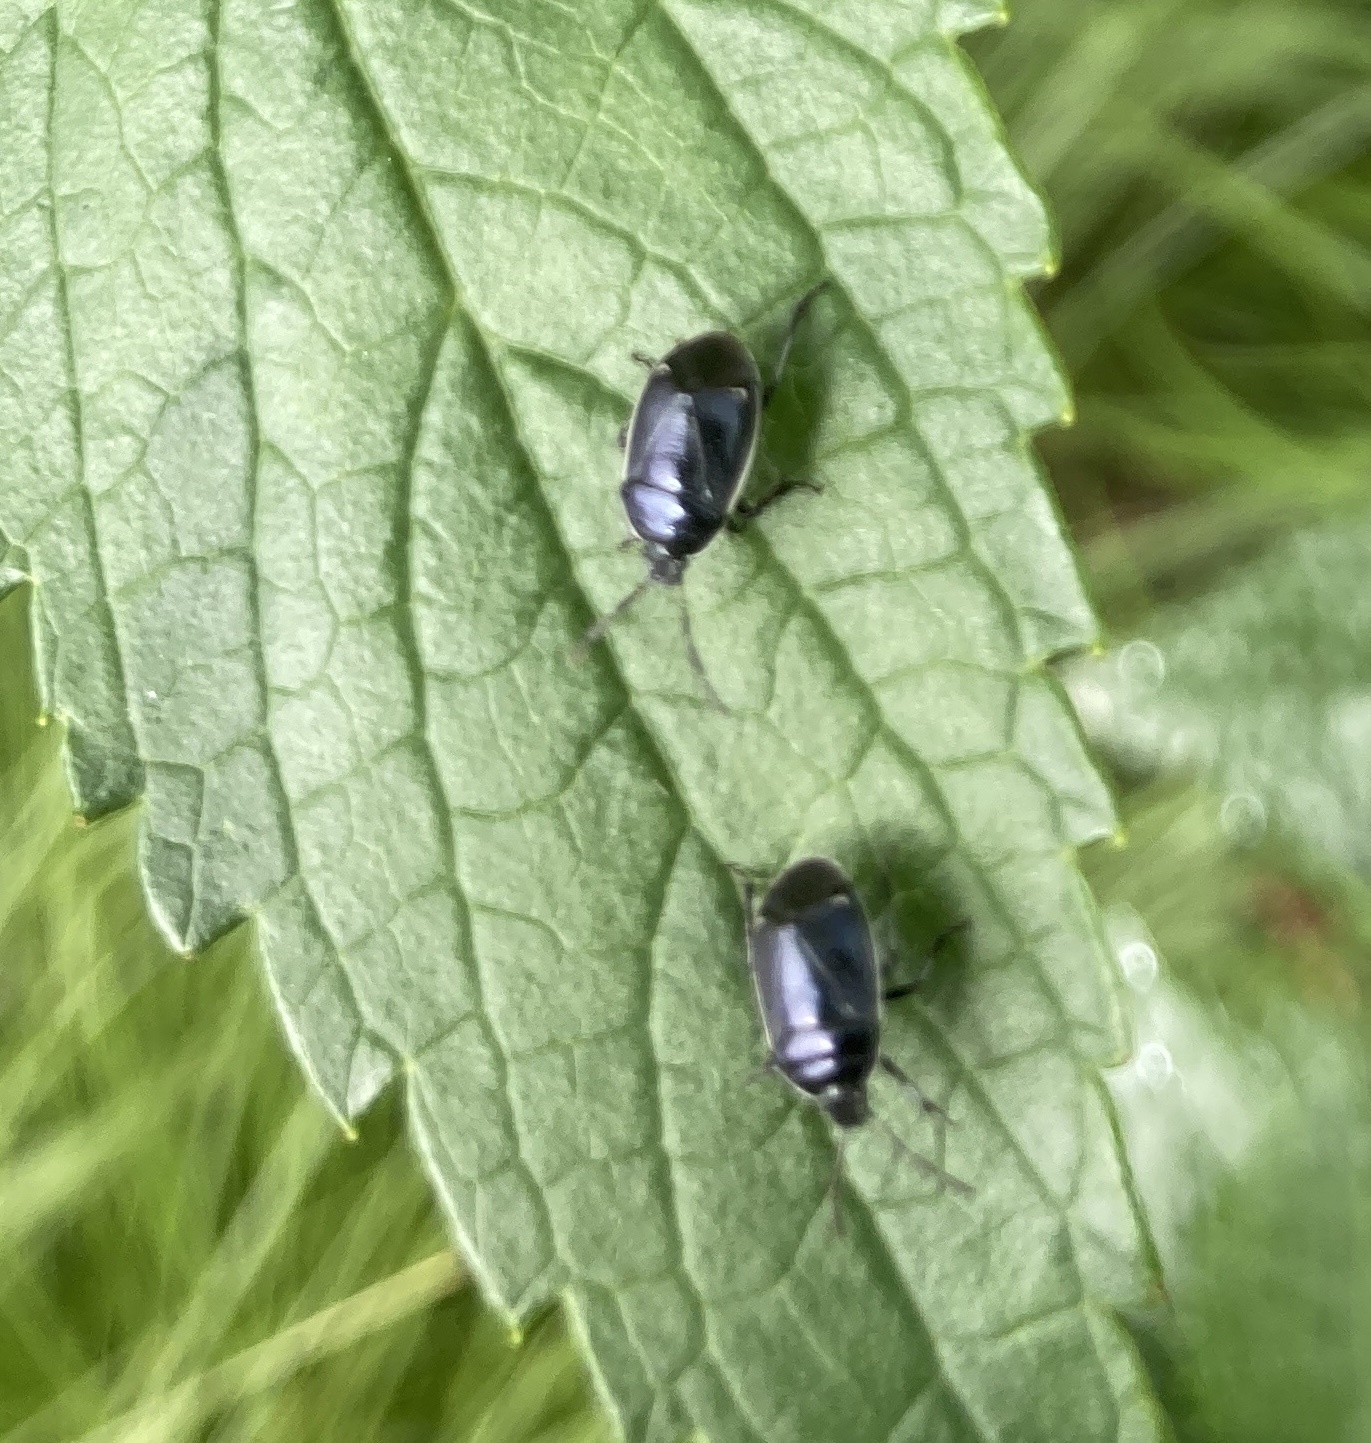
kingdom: Animalia
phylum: Arthropoda
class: Insecta
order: Hemiptera
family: Cydnidae
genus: Sehirus
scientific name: Sehirus cinctus
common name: White-margined burrower bug
